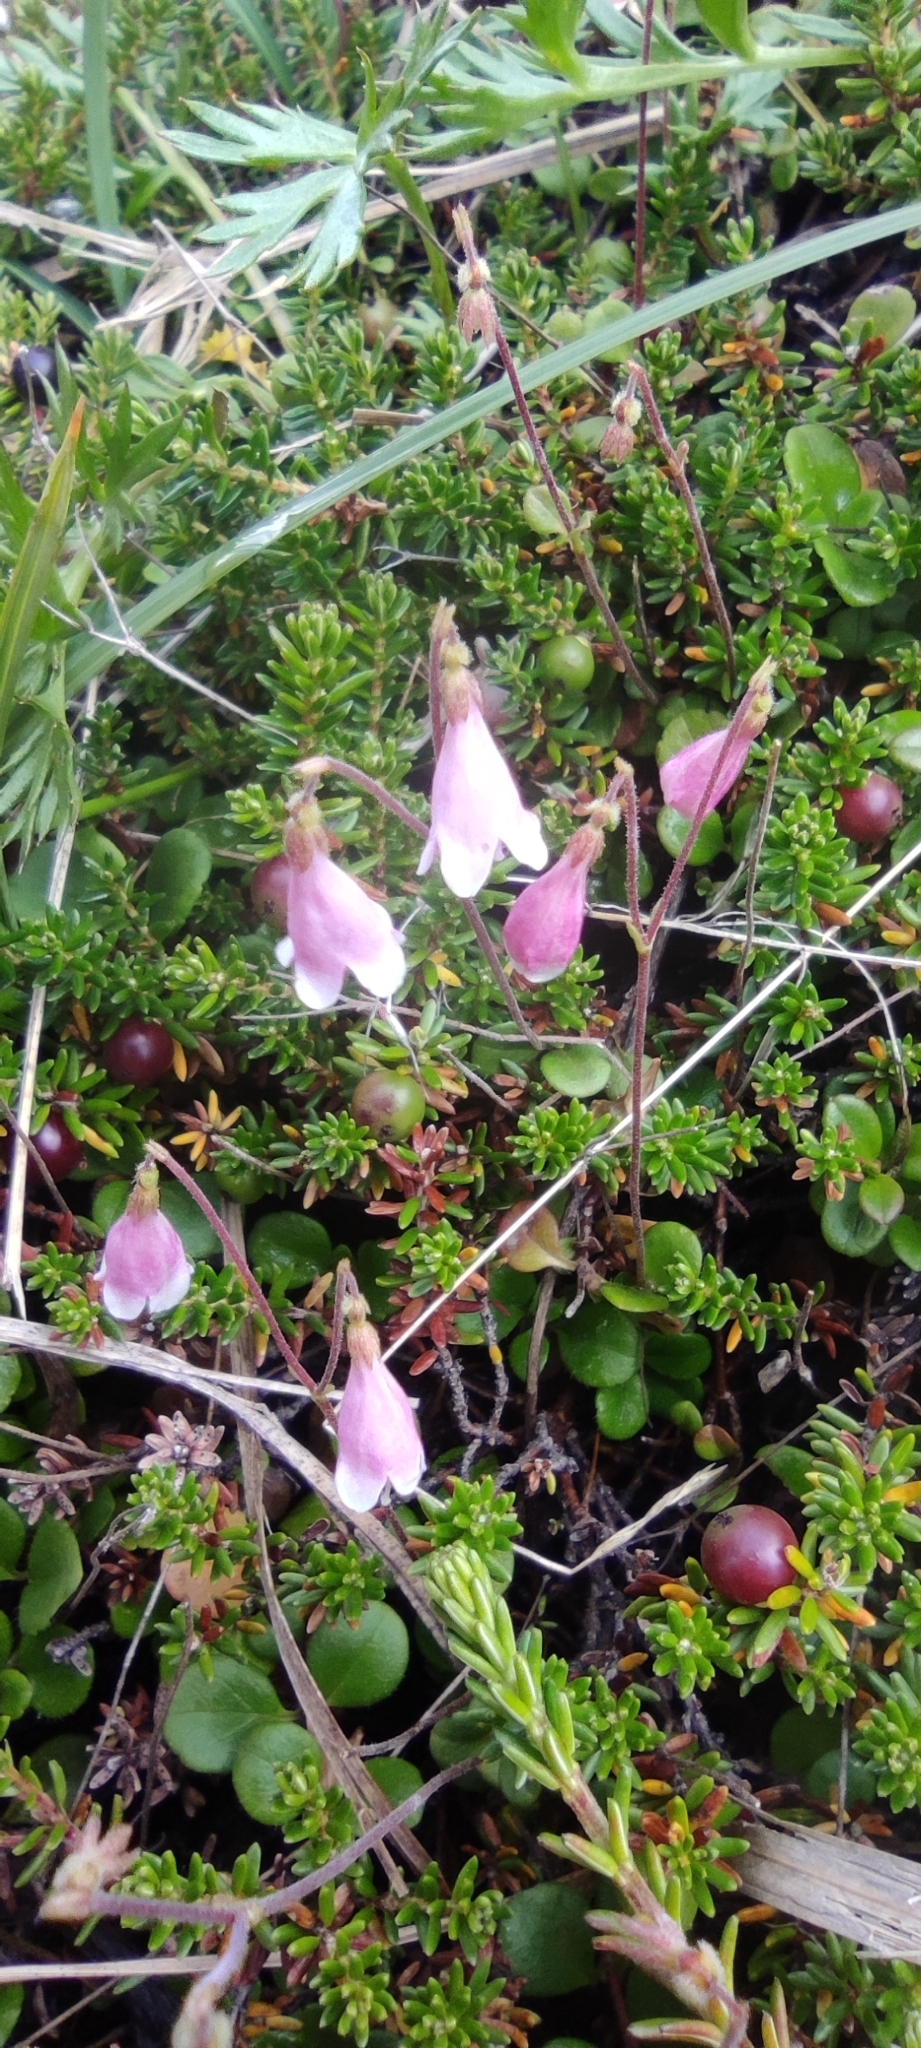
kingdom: Plantae
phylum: Tracheophyta
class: Magnoliopsida
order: Dipsacales
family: Caprifoliaceae
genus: Linnaea
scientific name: Linnaea borealis
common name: Twinflower
